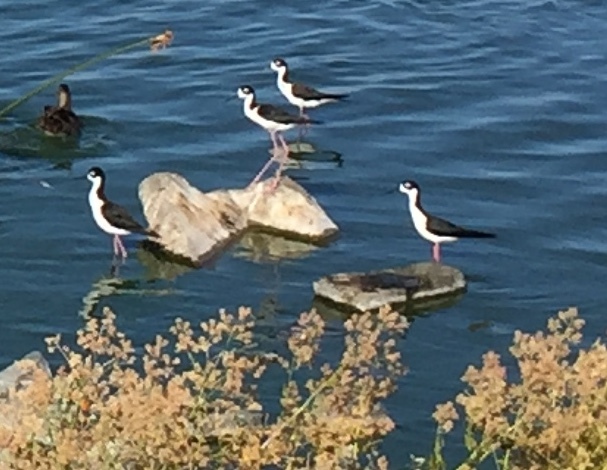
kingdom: Animalia
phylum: Chordata
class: Aves
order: Charadriiformes
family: Recurvirostridae
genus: Himantopus
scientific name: Himantopus mexicanus
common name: Black-necked stilt
